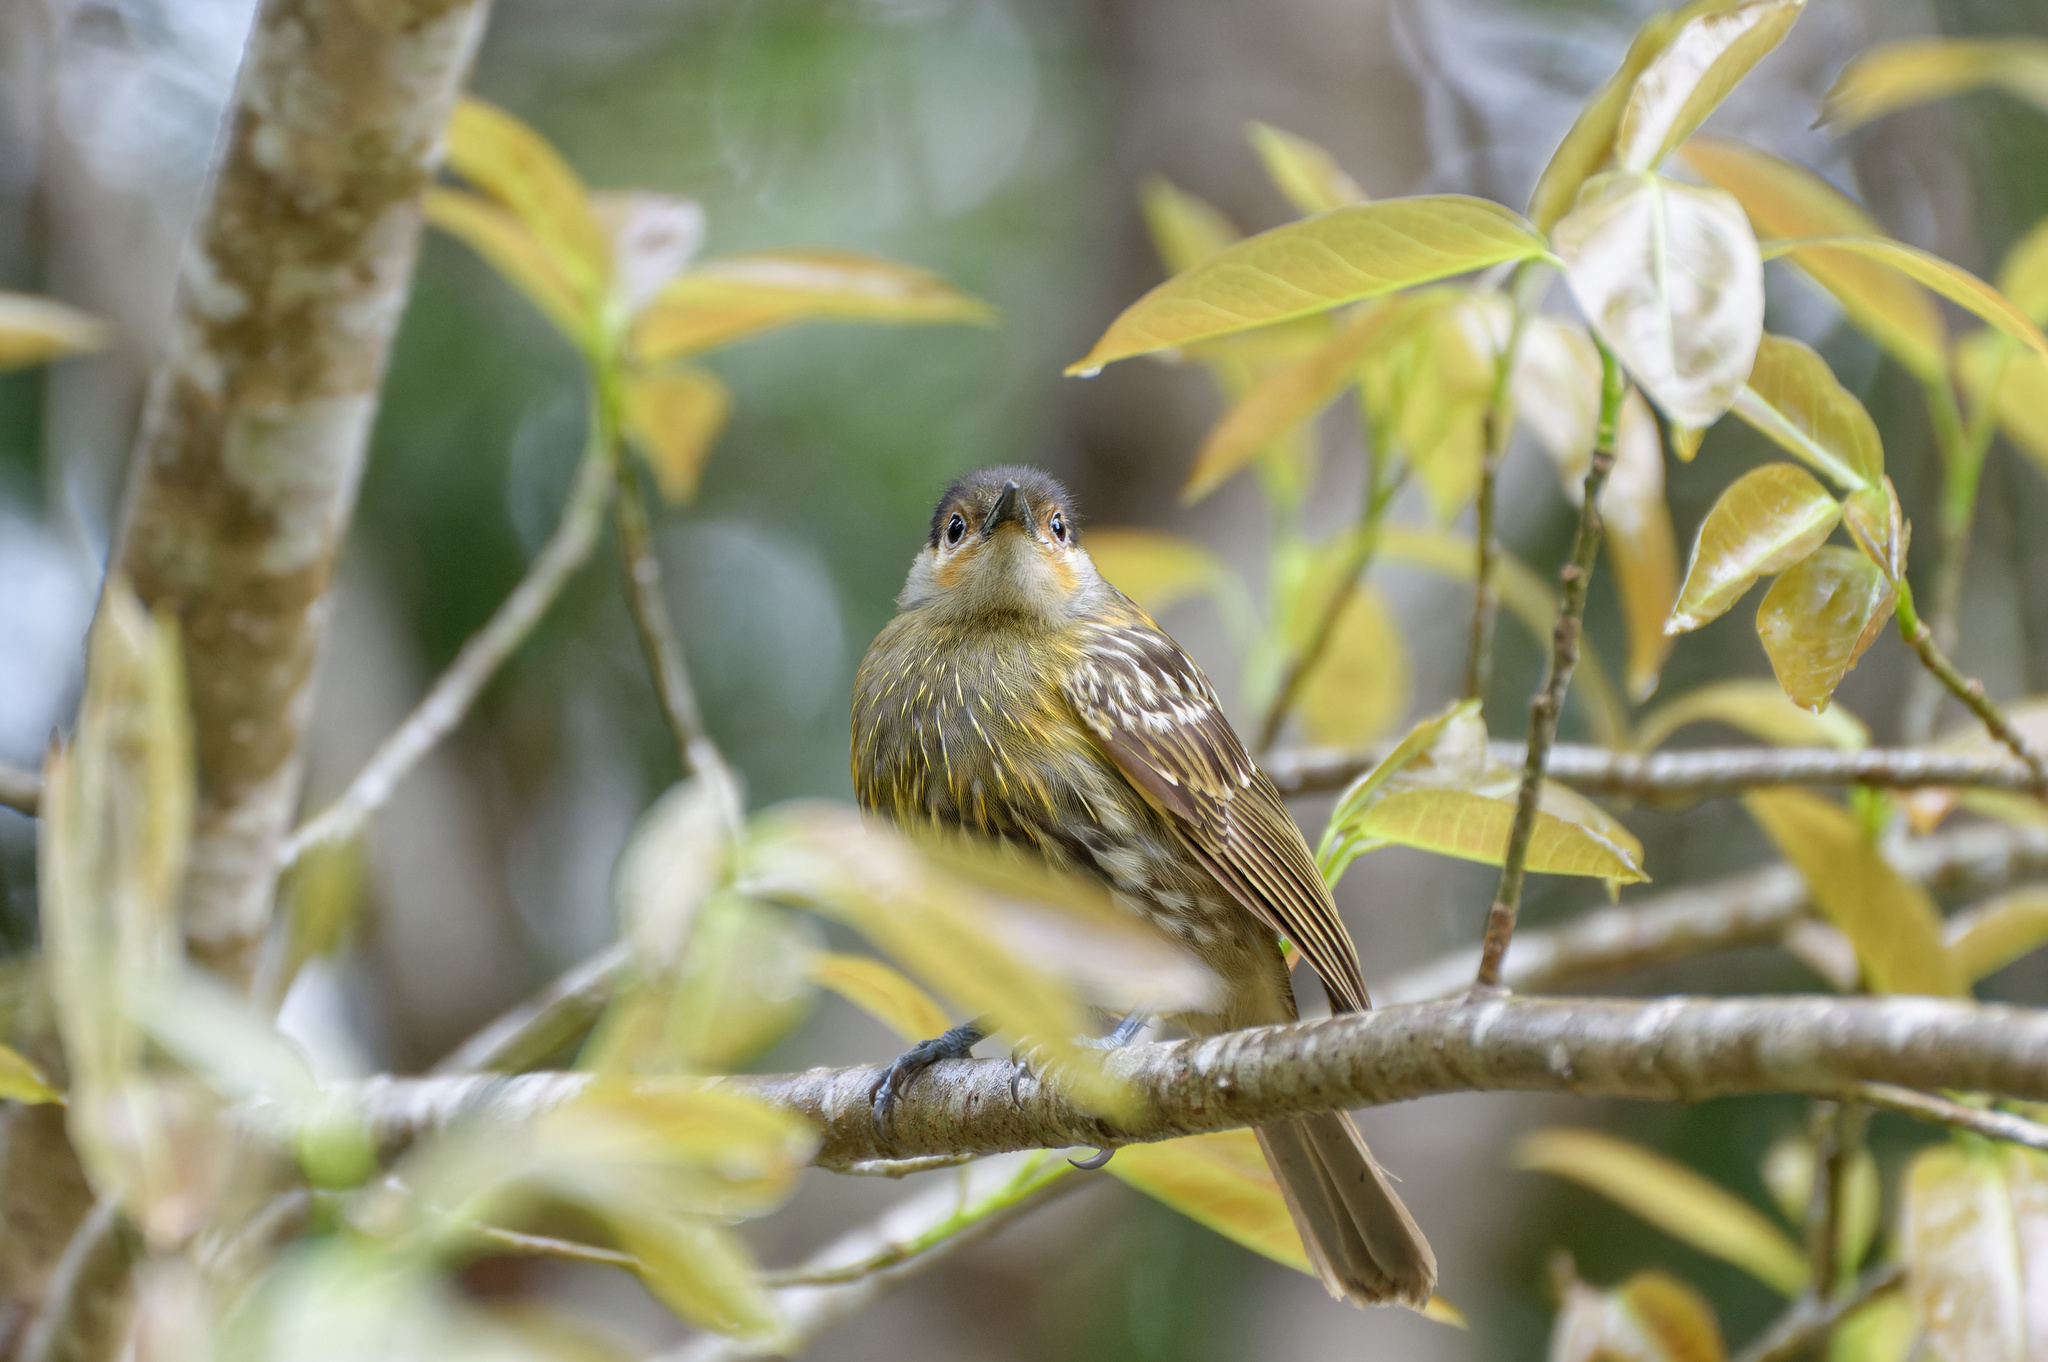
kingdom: Animalia
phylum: Chordata
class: Aves
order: Passeriformes
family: Meliphagidae
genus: Xanthotis
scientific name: Xanthotis macleayanus
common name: Macleay's honeyeater
